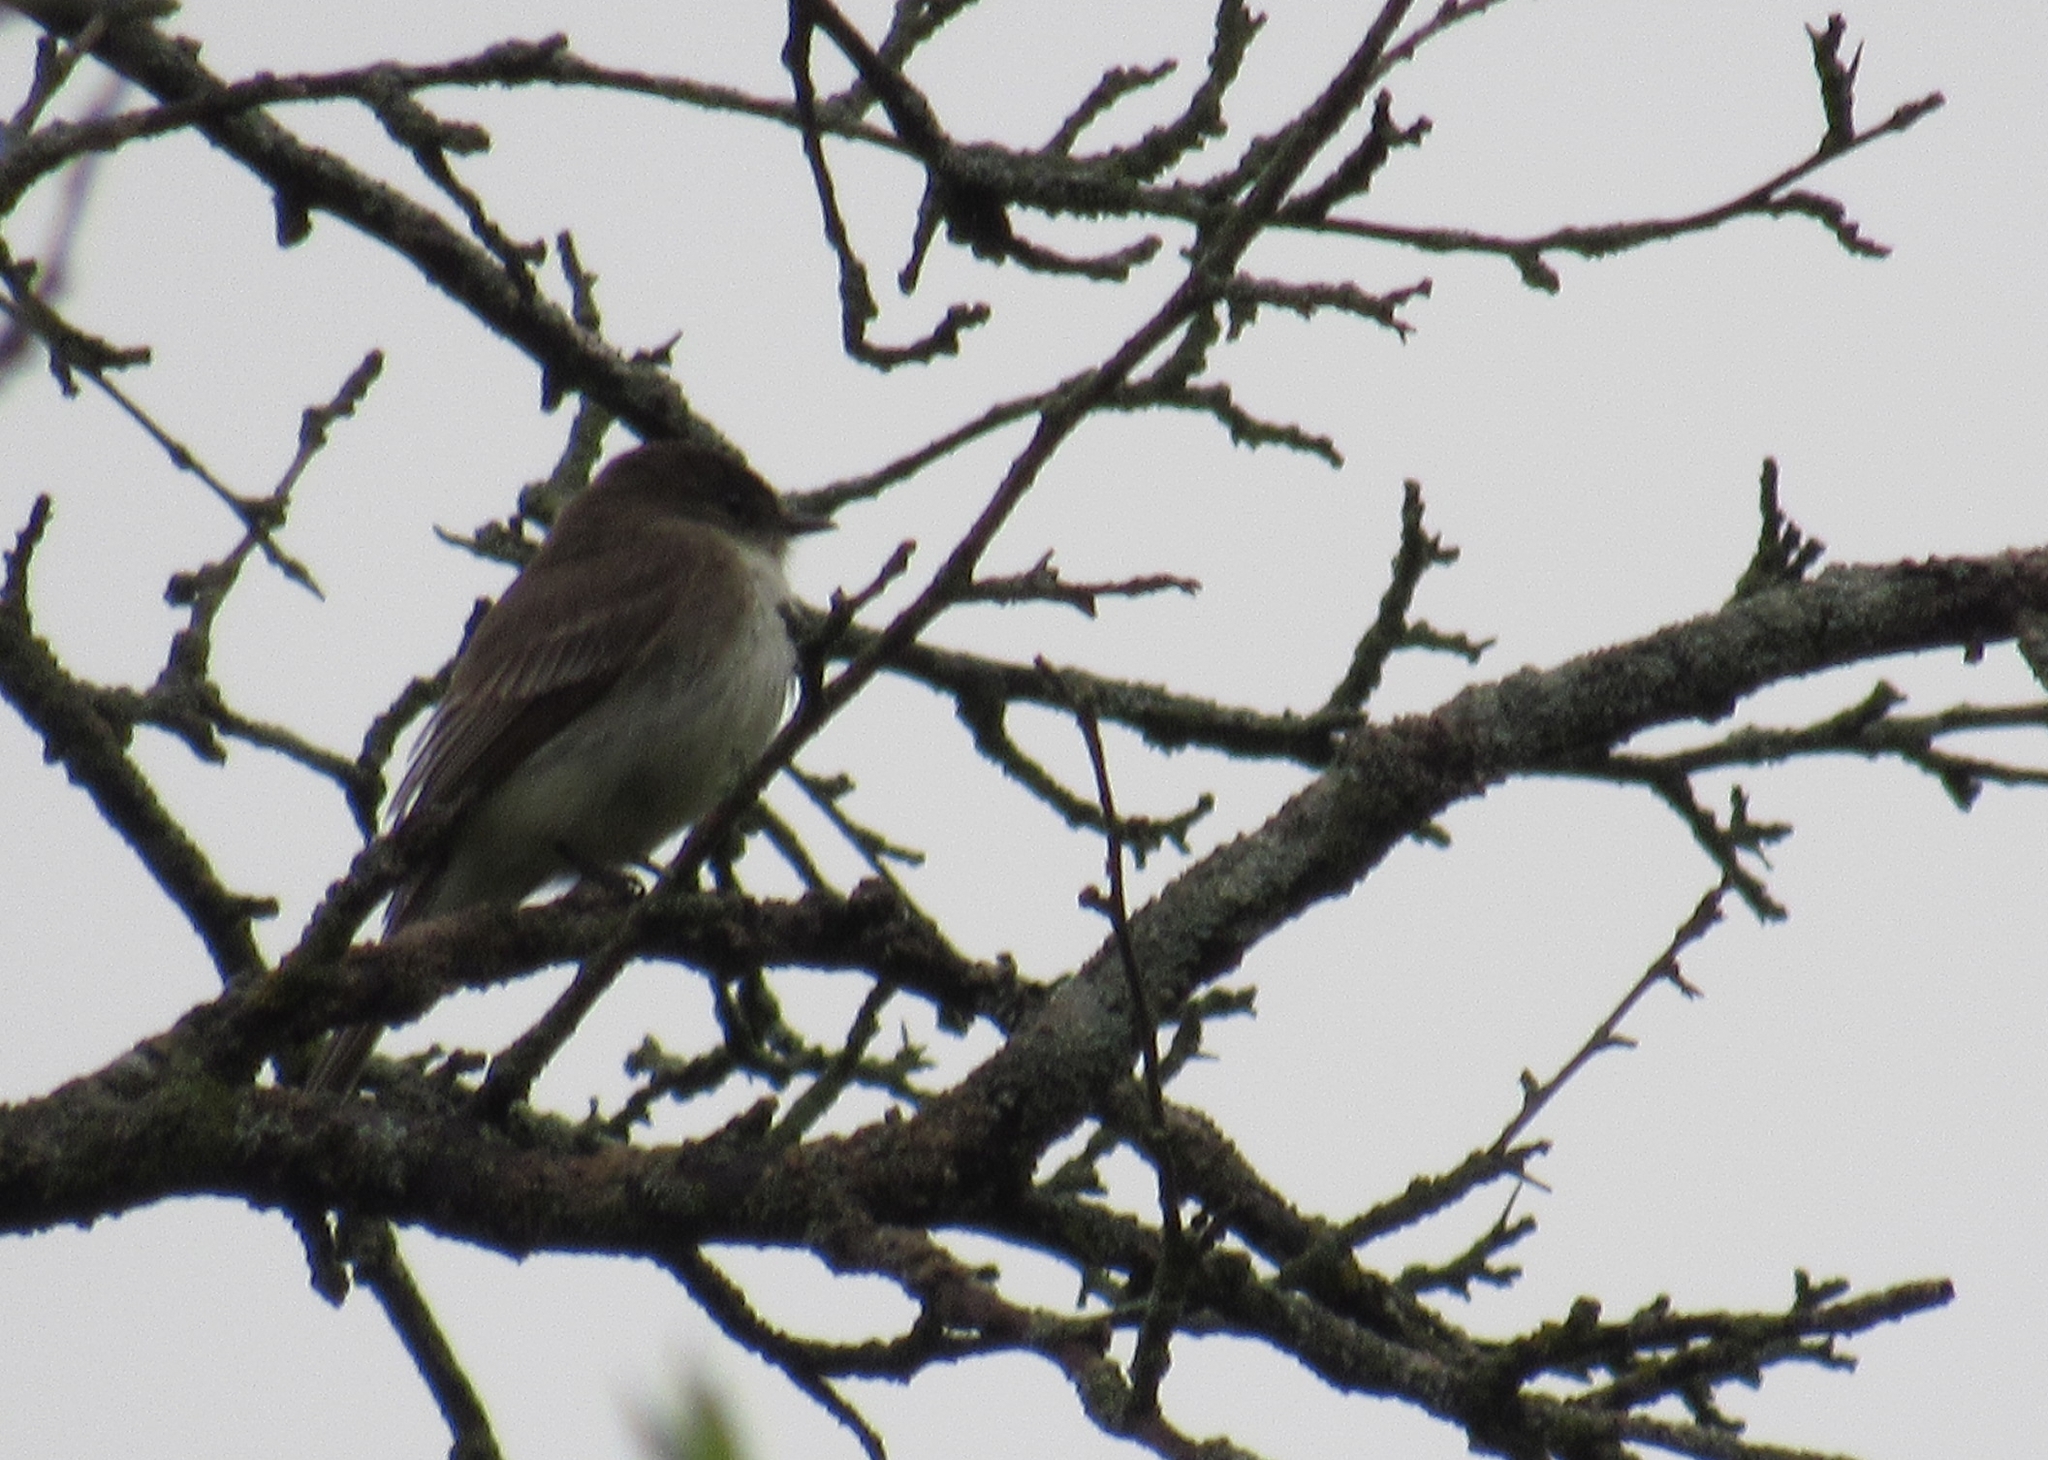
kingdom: Animalia
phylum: Chordata
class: Aves
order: Passeriformes
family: Tyrannidae
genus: Sayornis
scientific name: Sayornis phoebe
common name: Eastern phoebe
